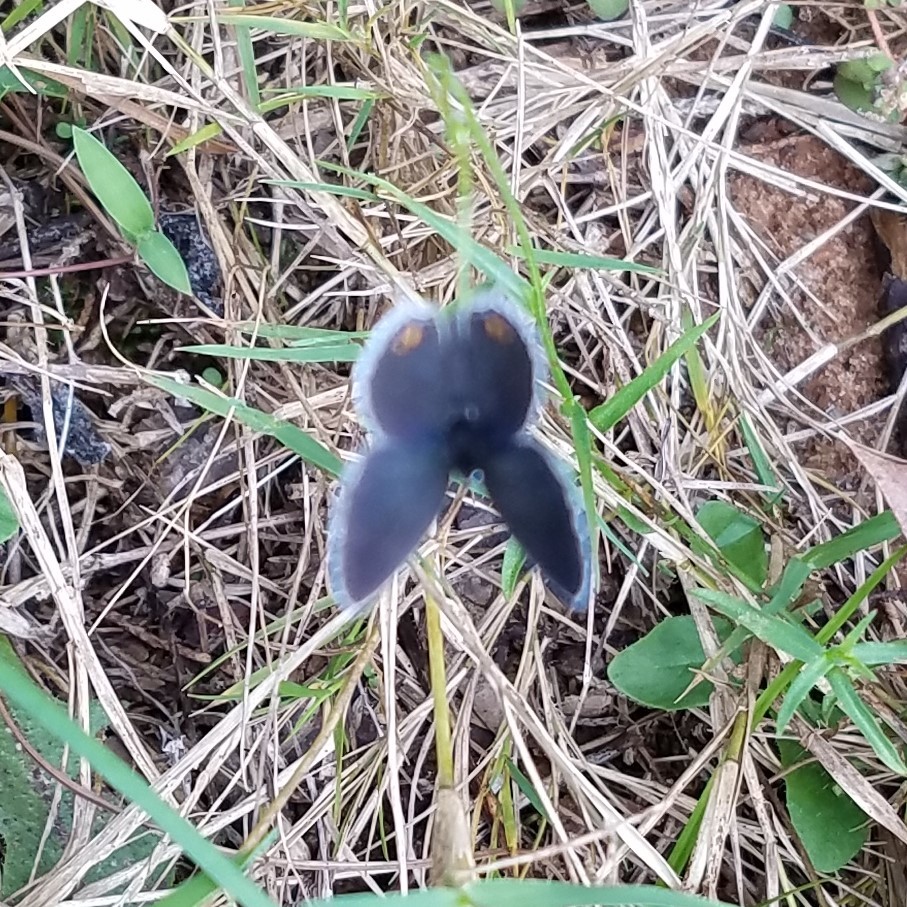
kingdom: Animalia
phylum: Arthropoda
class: Insecta
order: Lepidoptera
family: Lycaenidae
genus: Elkalyce
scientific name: Elkalyce comyntas
